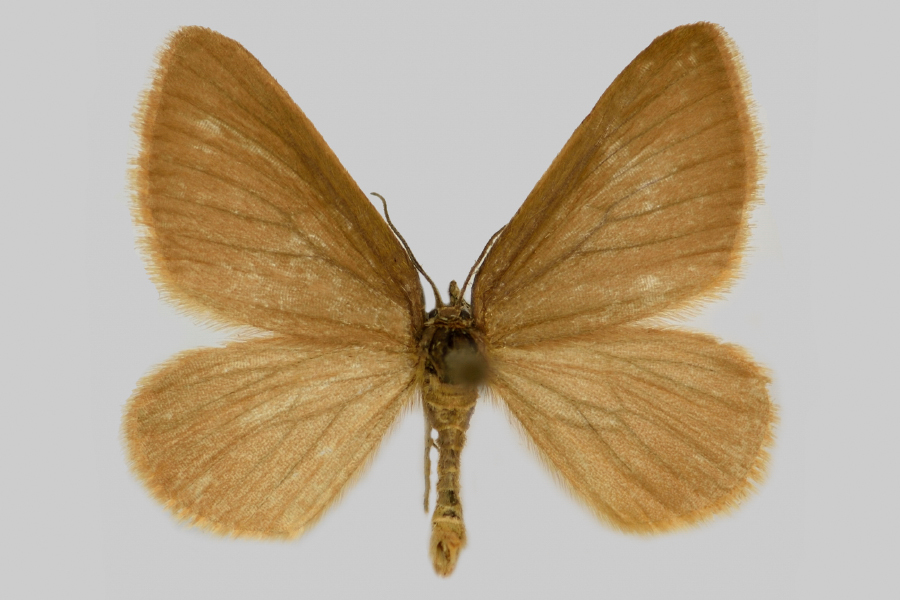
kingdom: Animalia
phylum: Arthropoda
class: Insecta
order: Lepidoptera
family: Geometridae
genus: Minoa
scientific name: Minoa murinata
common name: Drab looper
